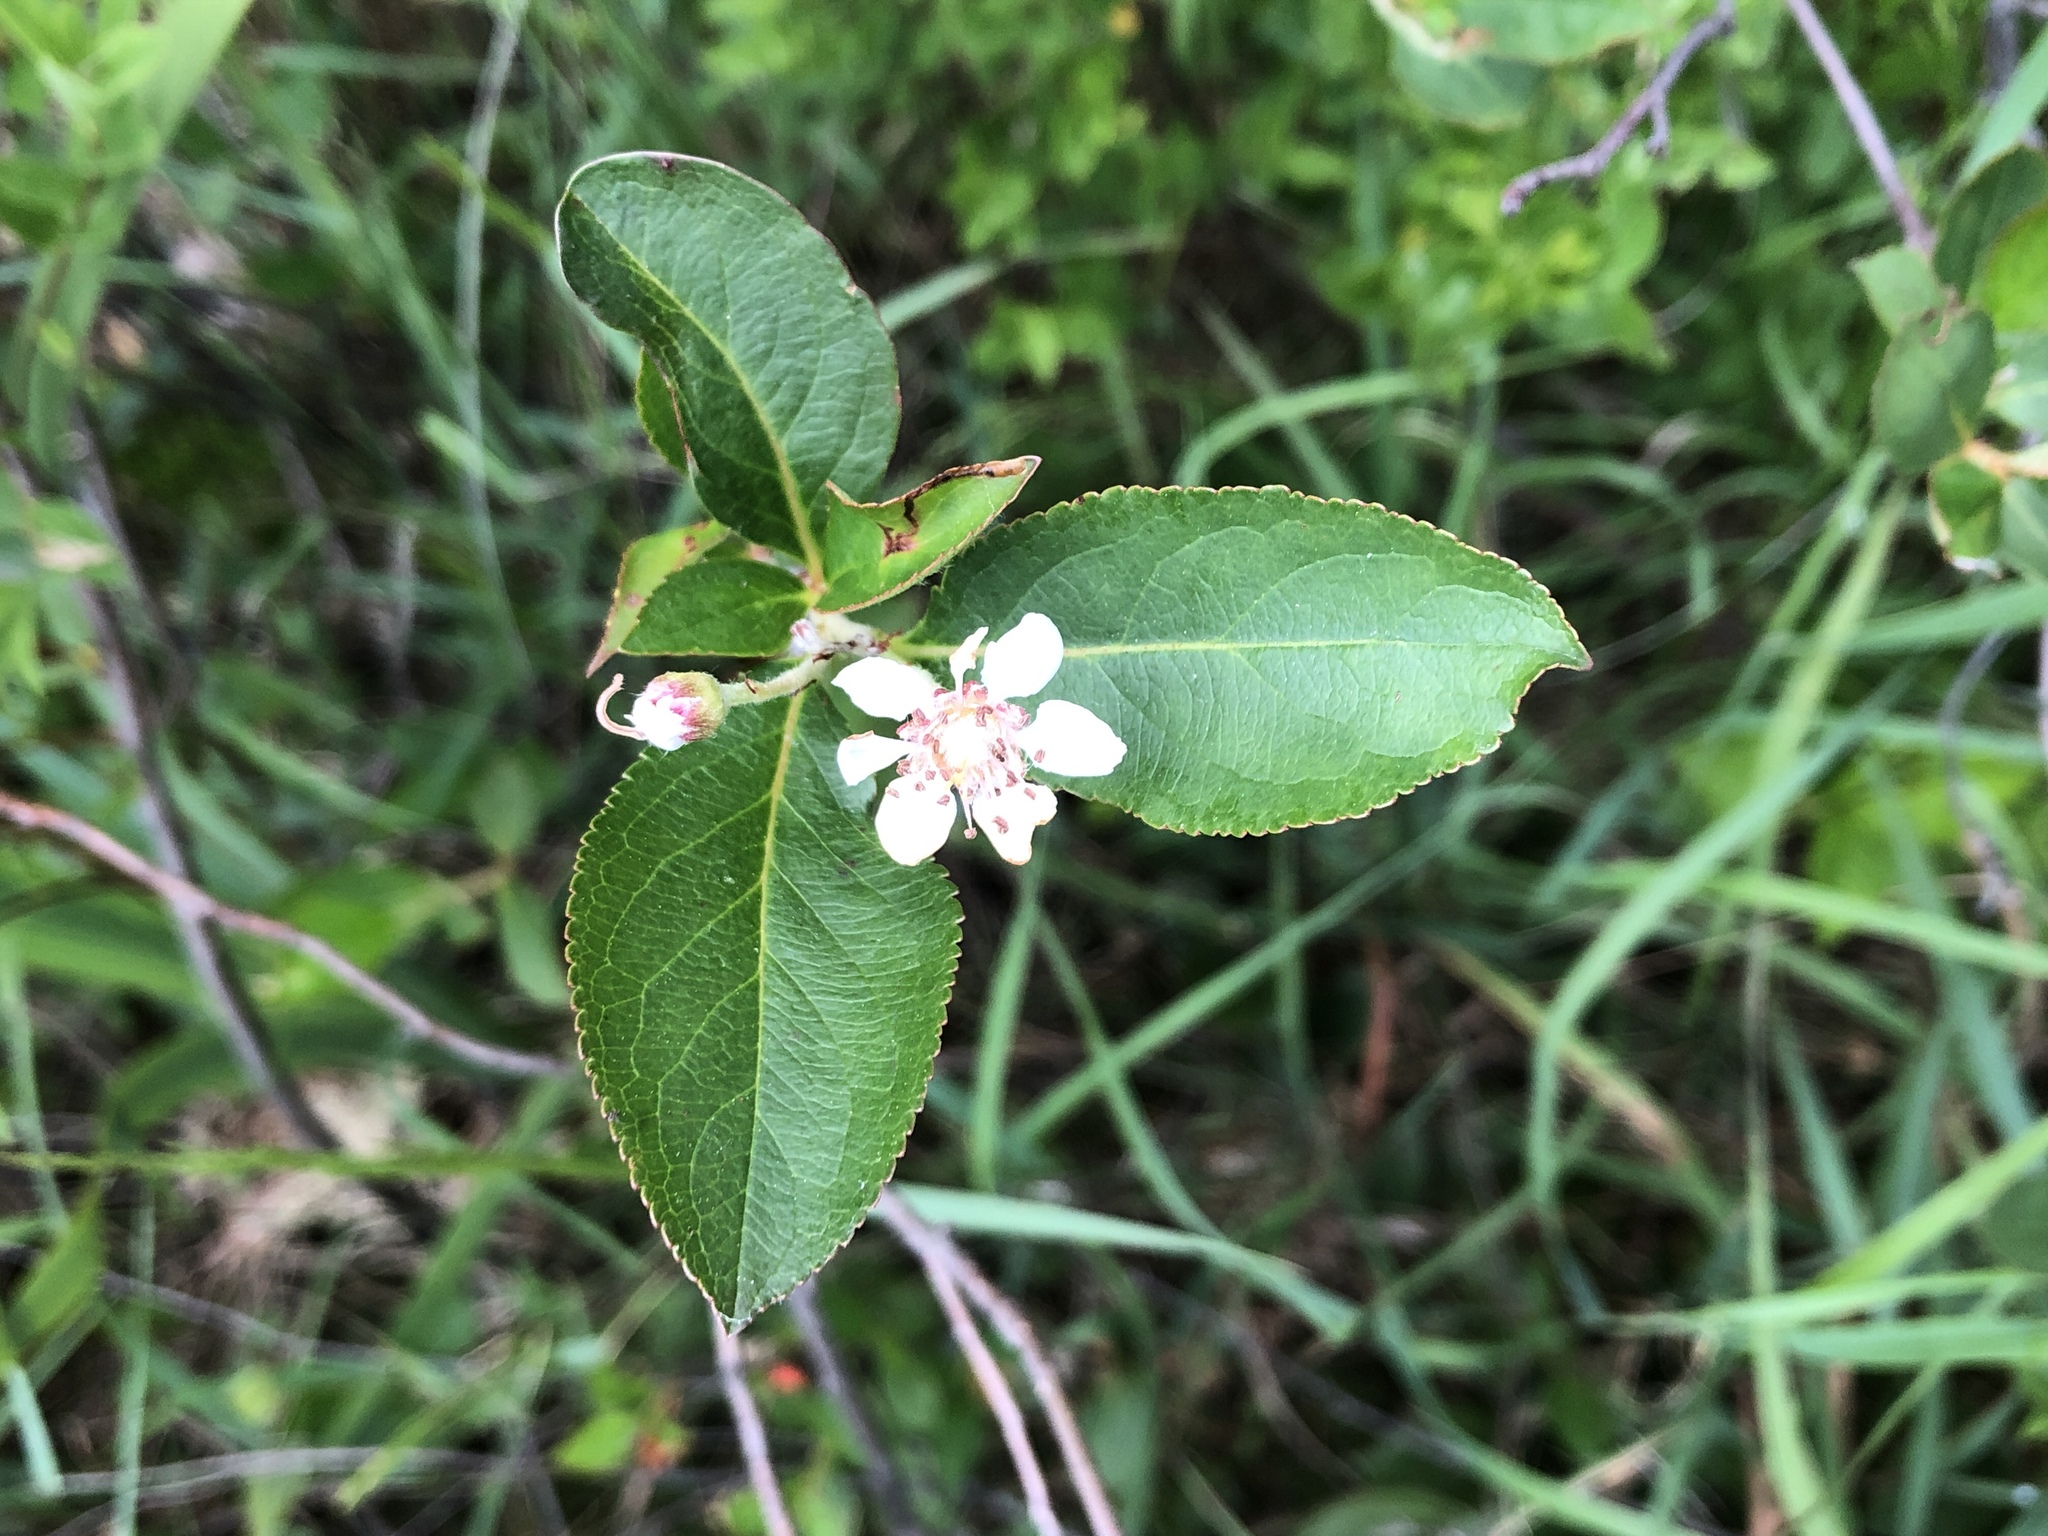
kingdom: Plantae
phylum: Tracheophyta
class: Magnoliopsida
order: Rosales
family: Rosaceae
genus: Aronia
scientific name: Aronia melanocarpa
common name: Black chokeberry
